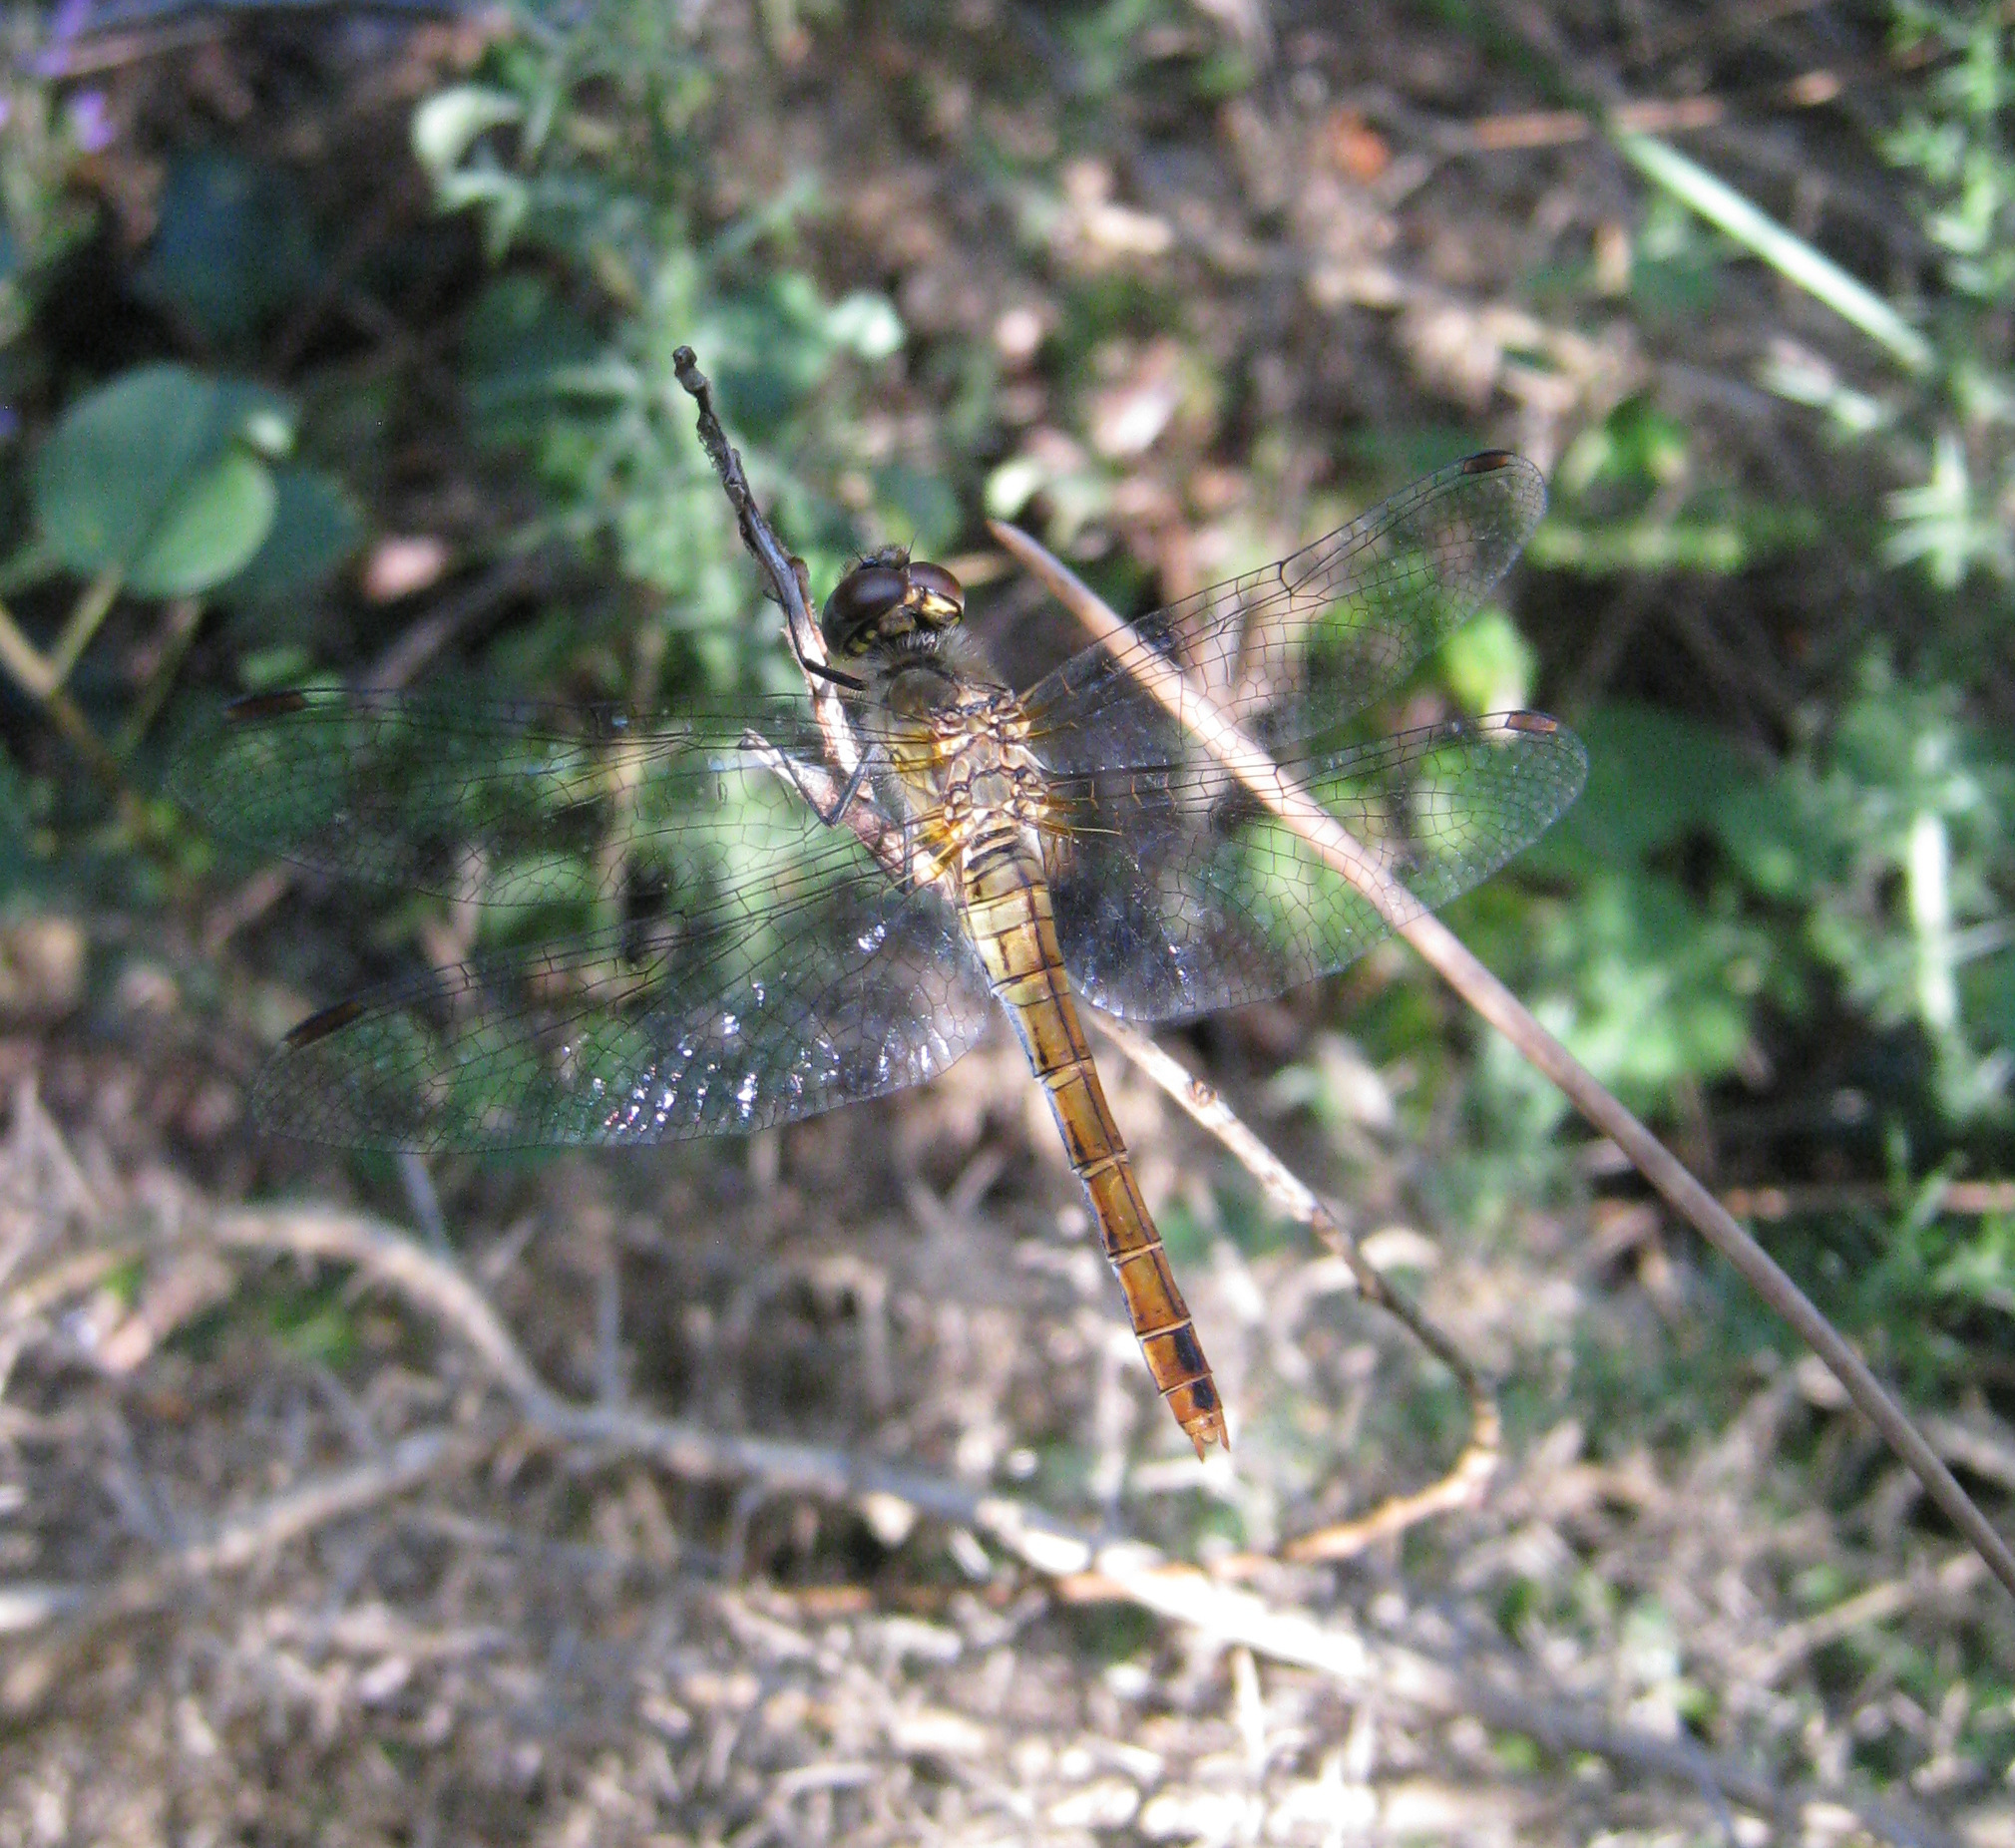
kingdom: Animalia
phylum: Arthropoda
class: Insecta
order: Odonata
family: Libellulidae
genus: Sympetrum
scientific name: Sympetrum sanguineum
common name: Ruddy darter
